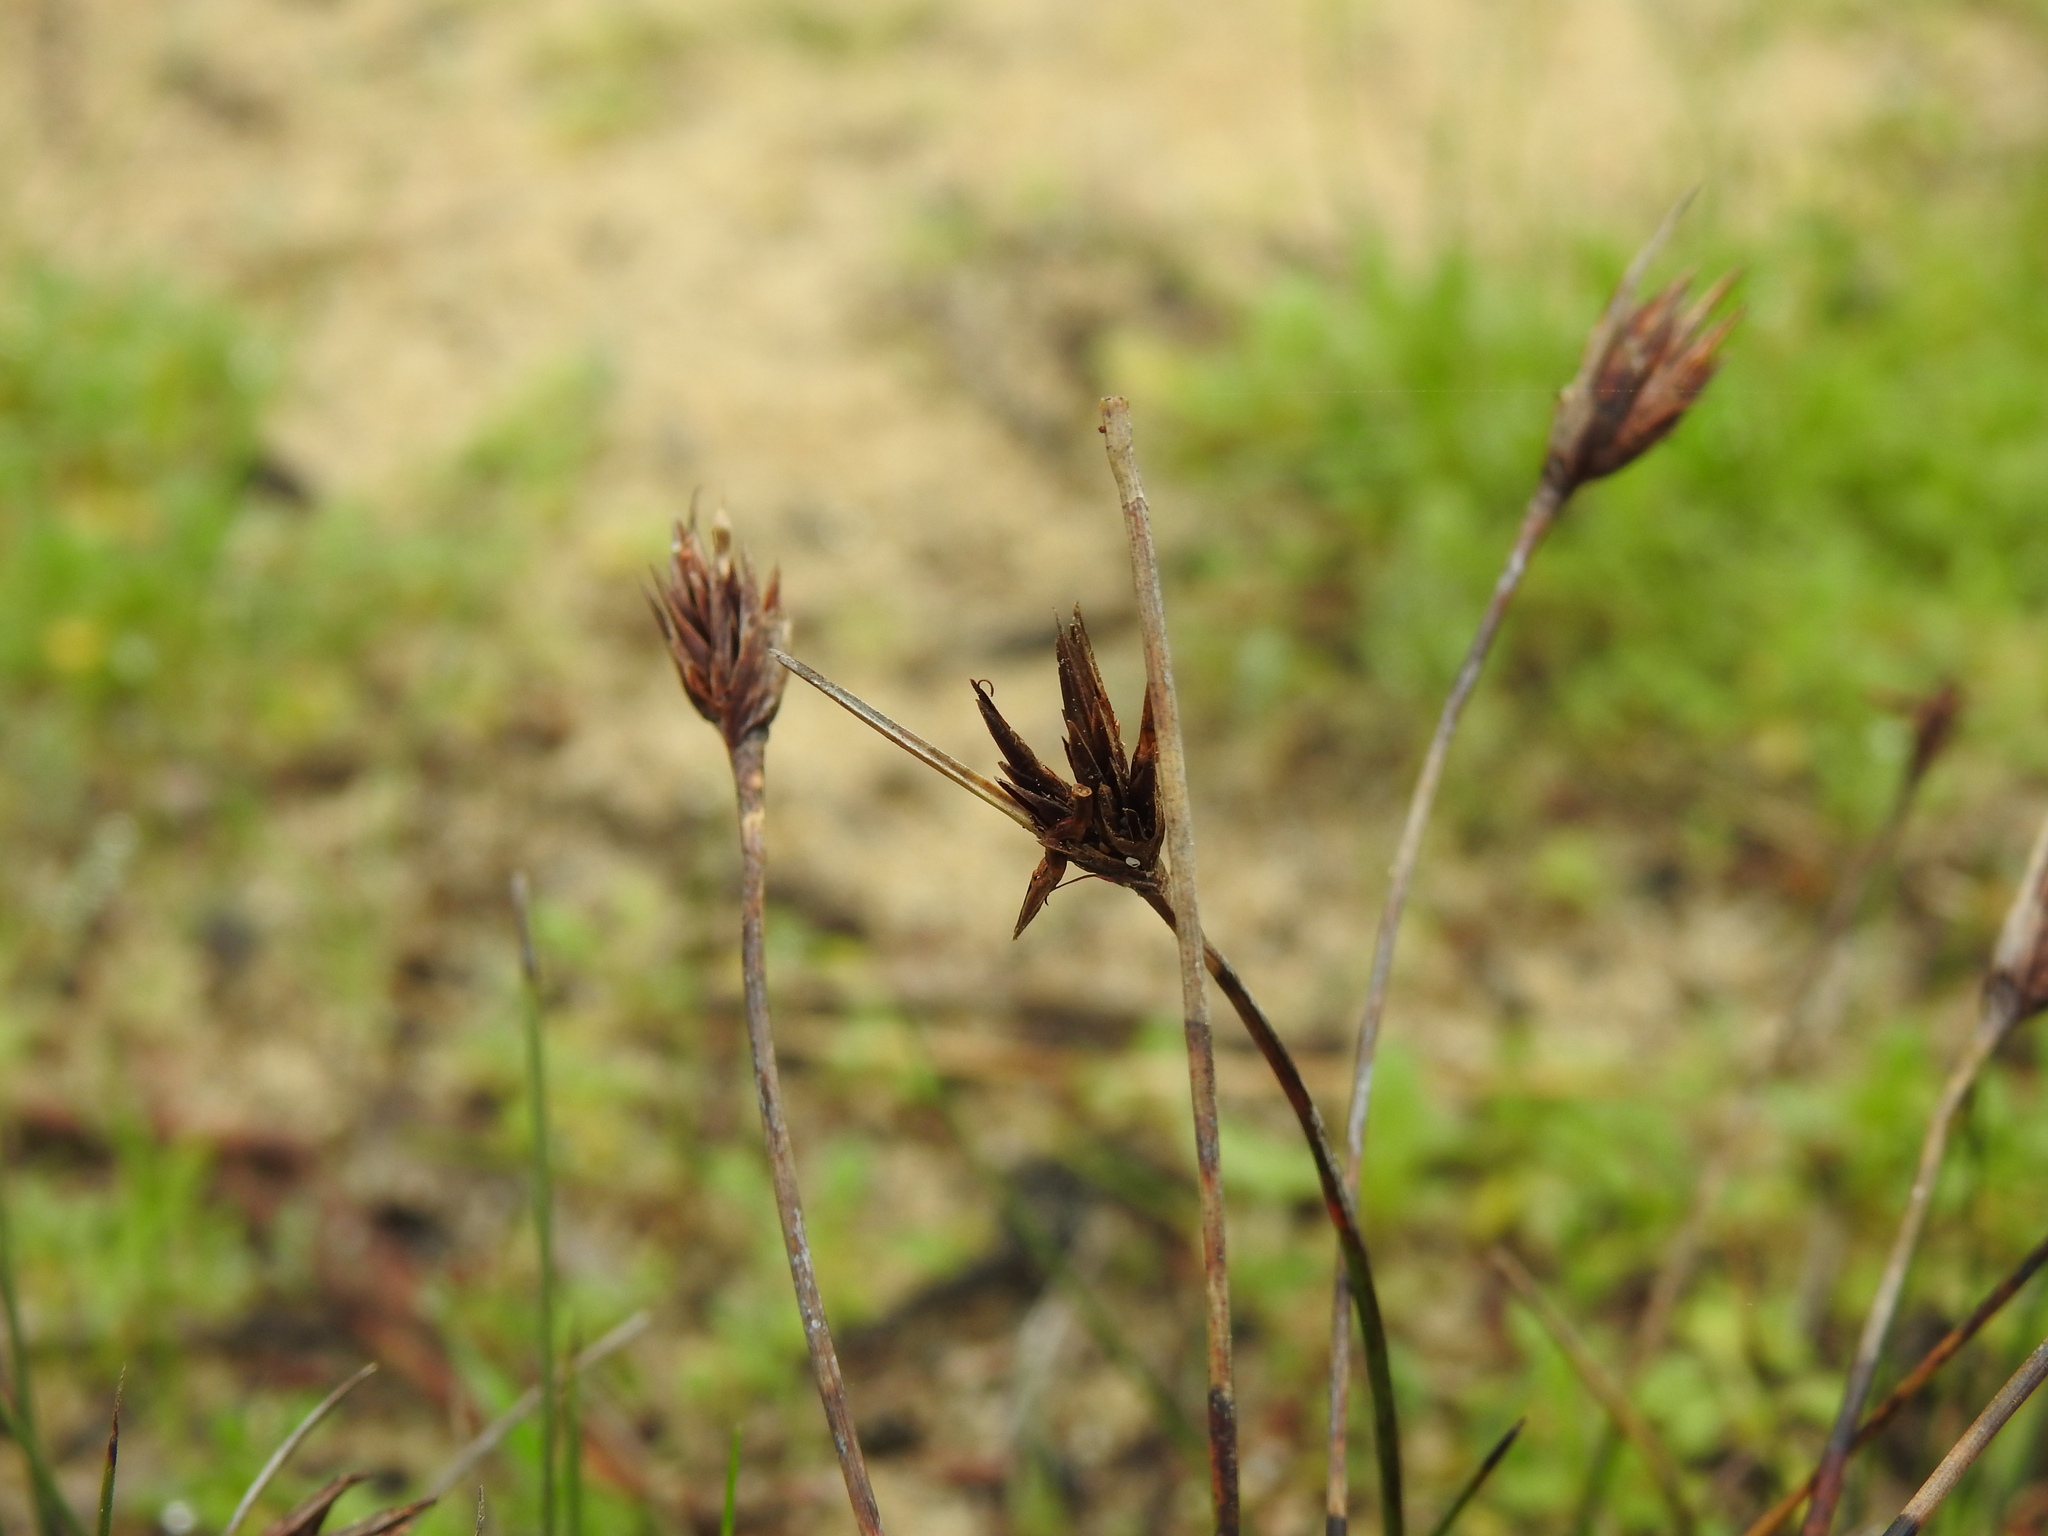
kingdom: Plantae
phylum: Tracheophyta
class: Liliopsida
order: Poales
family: Cyperaceae
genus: Schoenus
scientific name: Schoenus nigricans
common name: Black bog-rush
